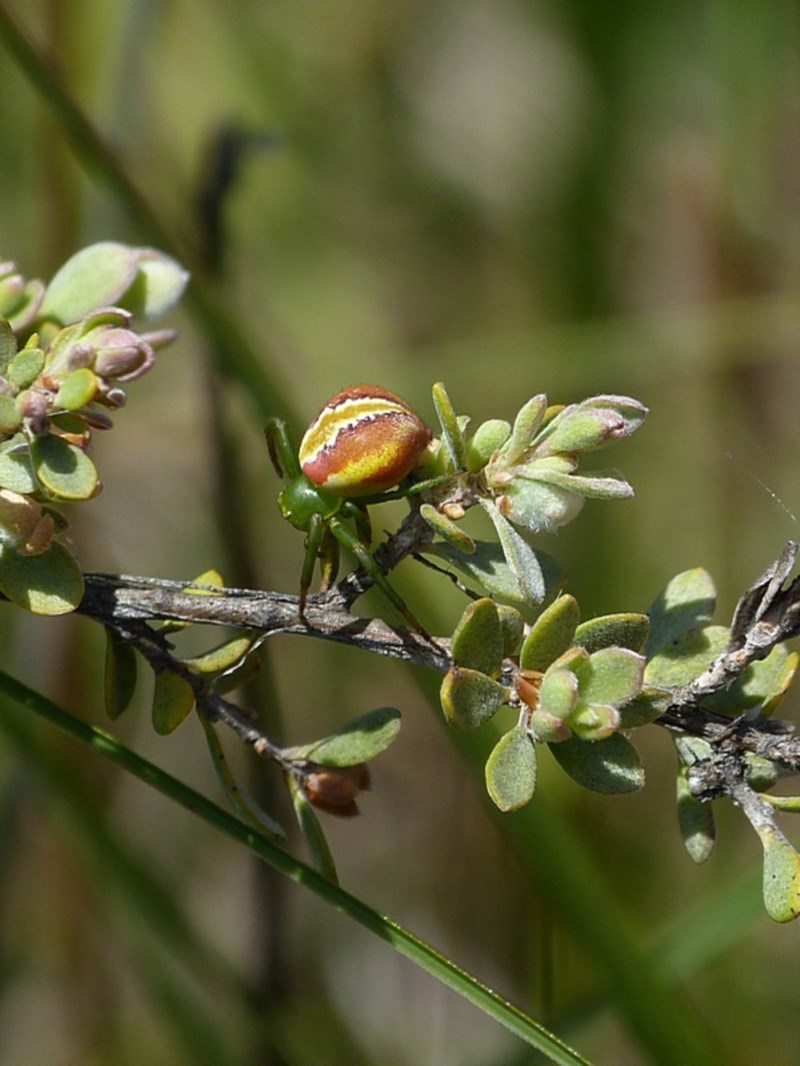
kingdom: Animalia
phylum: Arthropoda
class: Arachnida
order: Araneae
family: Thomisidae
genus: Australomisidia
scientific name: Australomisidia rosea
